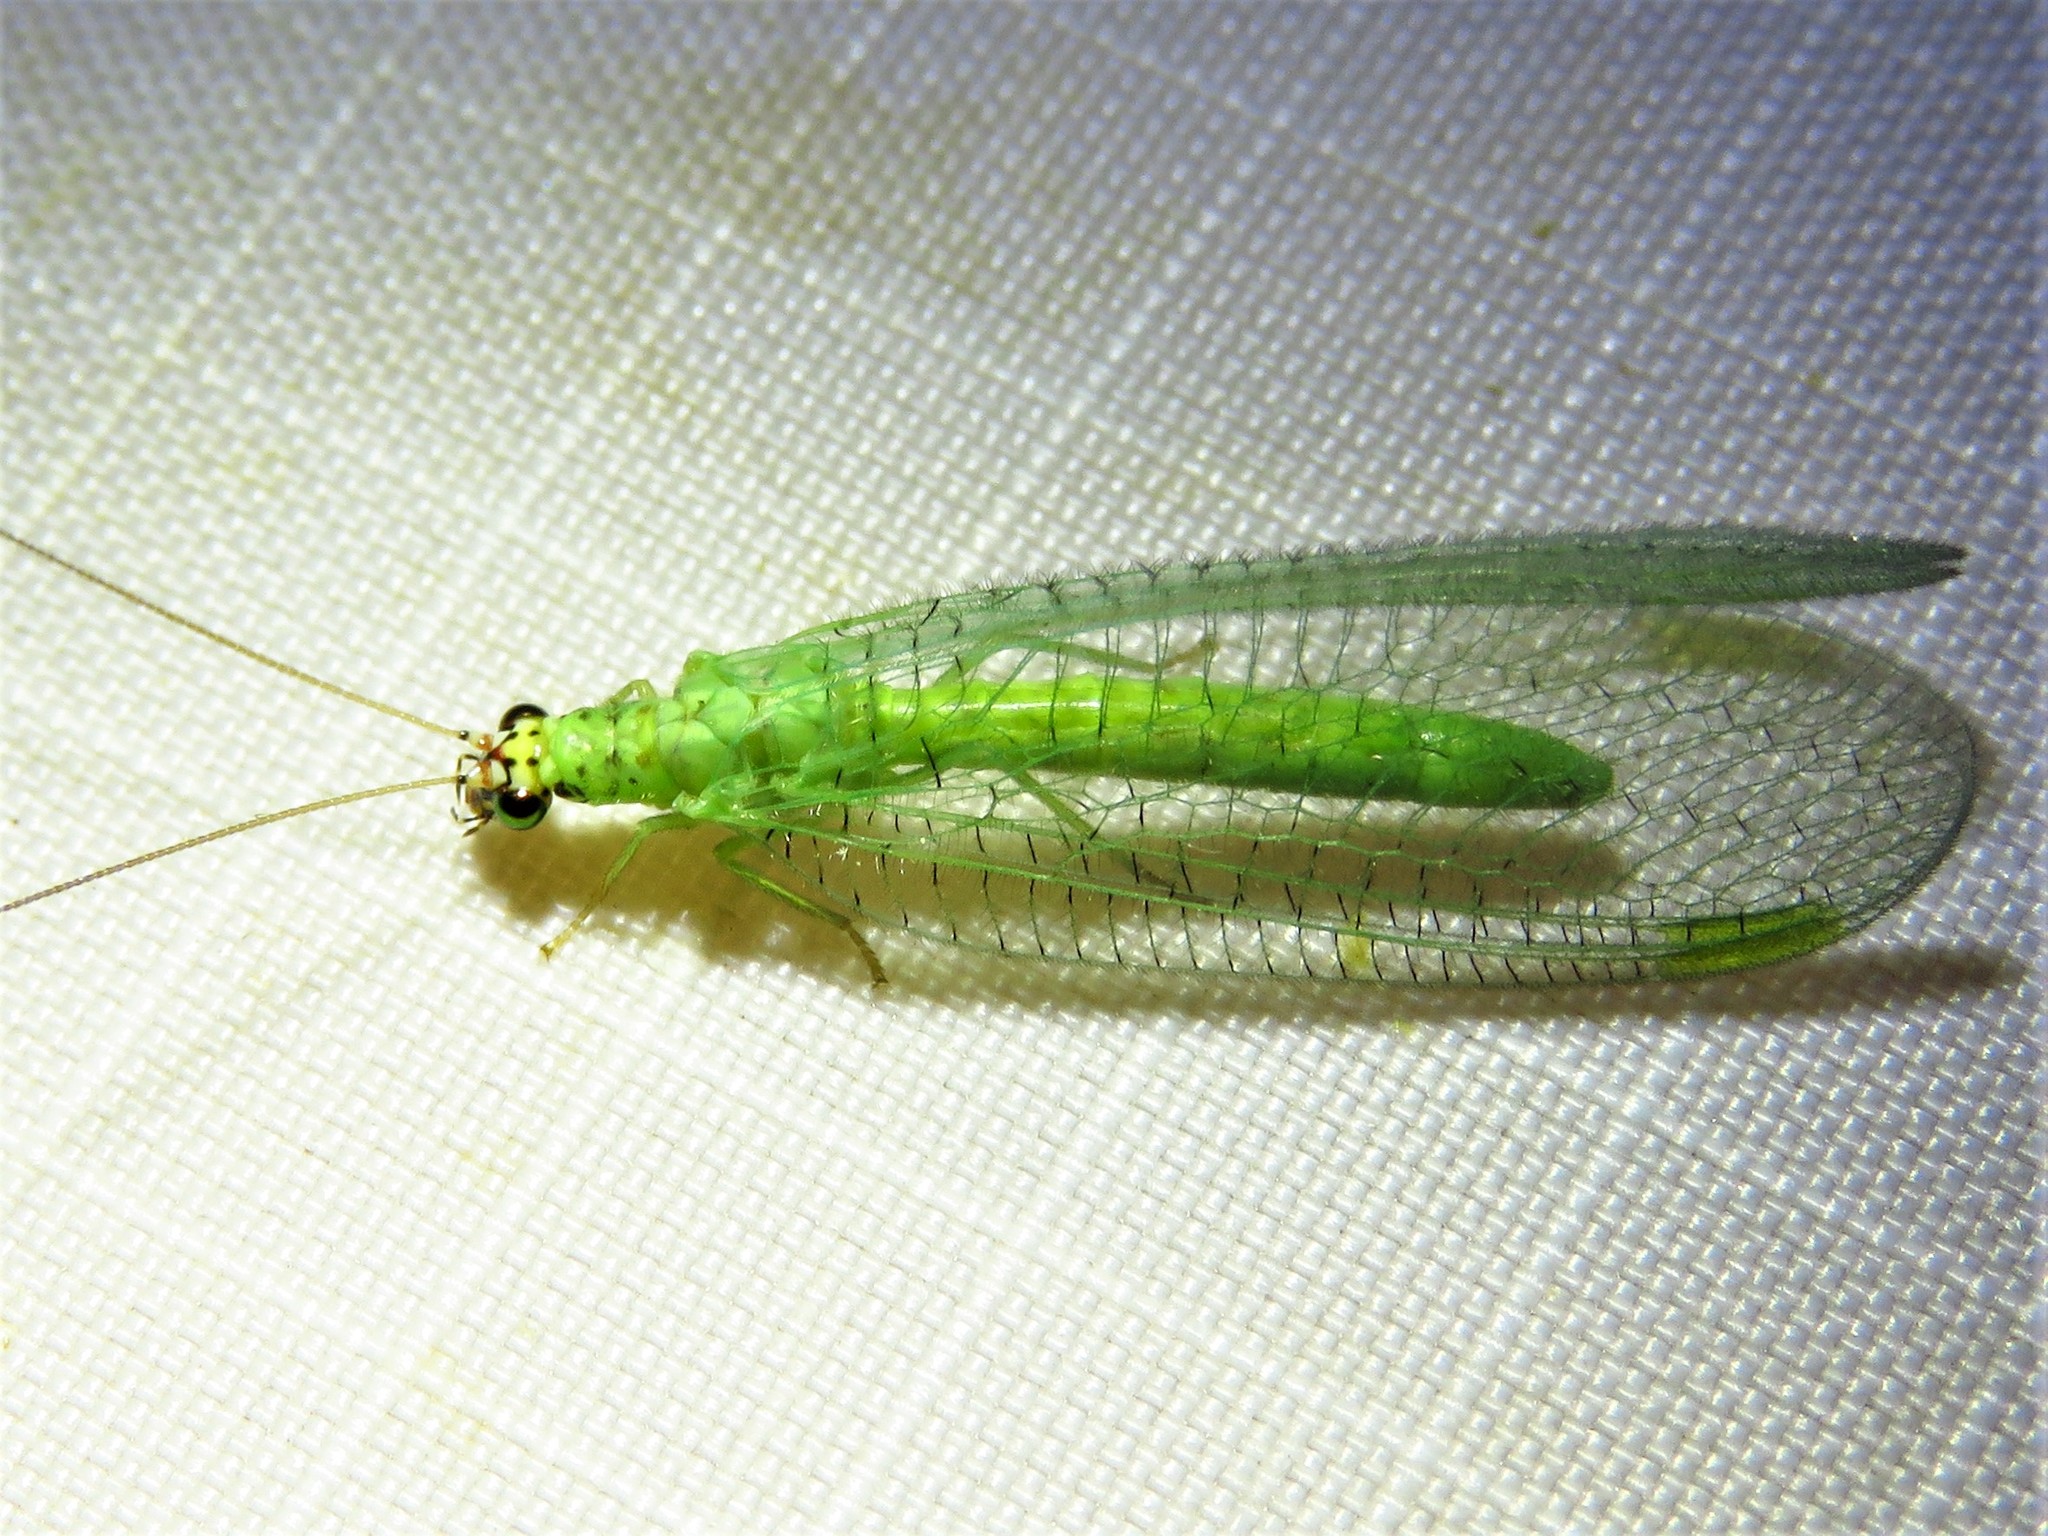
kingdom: Animalia
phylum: Arthropoda
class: Insecta
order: Neuroptera
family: Chrysopidae
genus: Chrysopa
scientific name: Chrysopa oculata
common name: Golden-eyed lacewing
